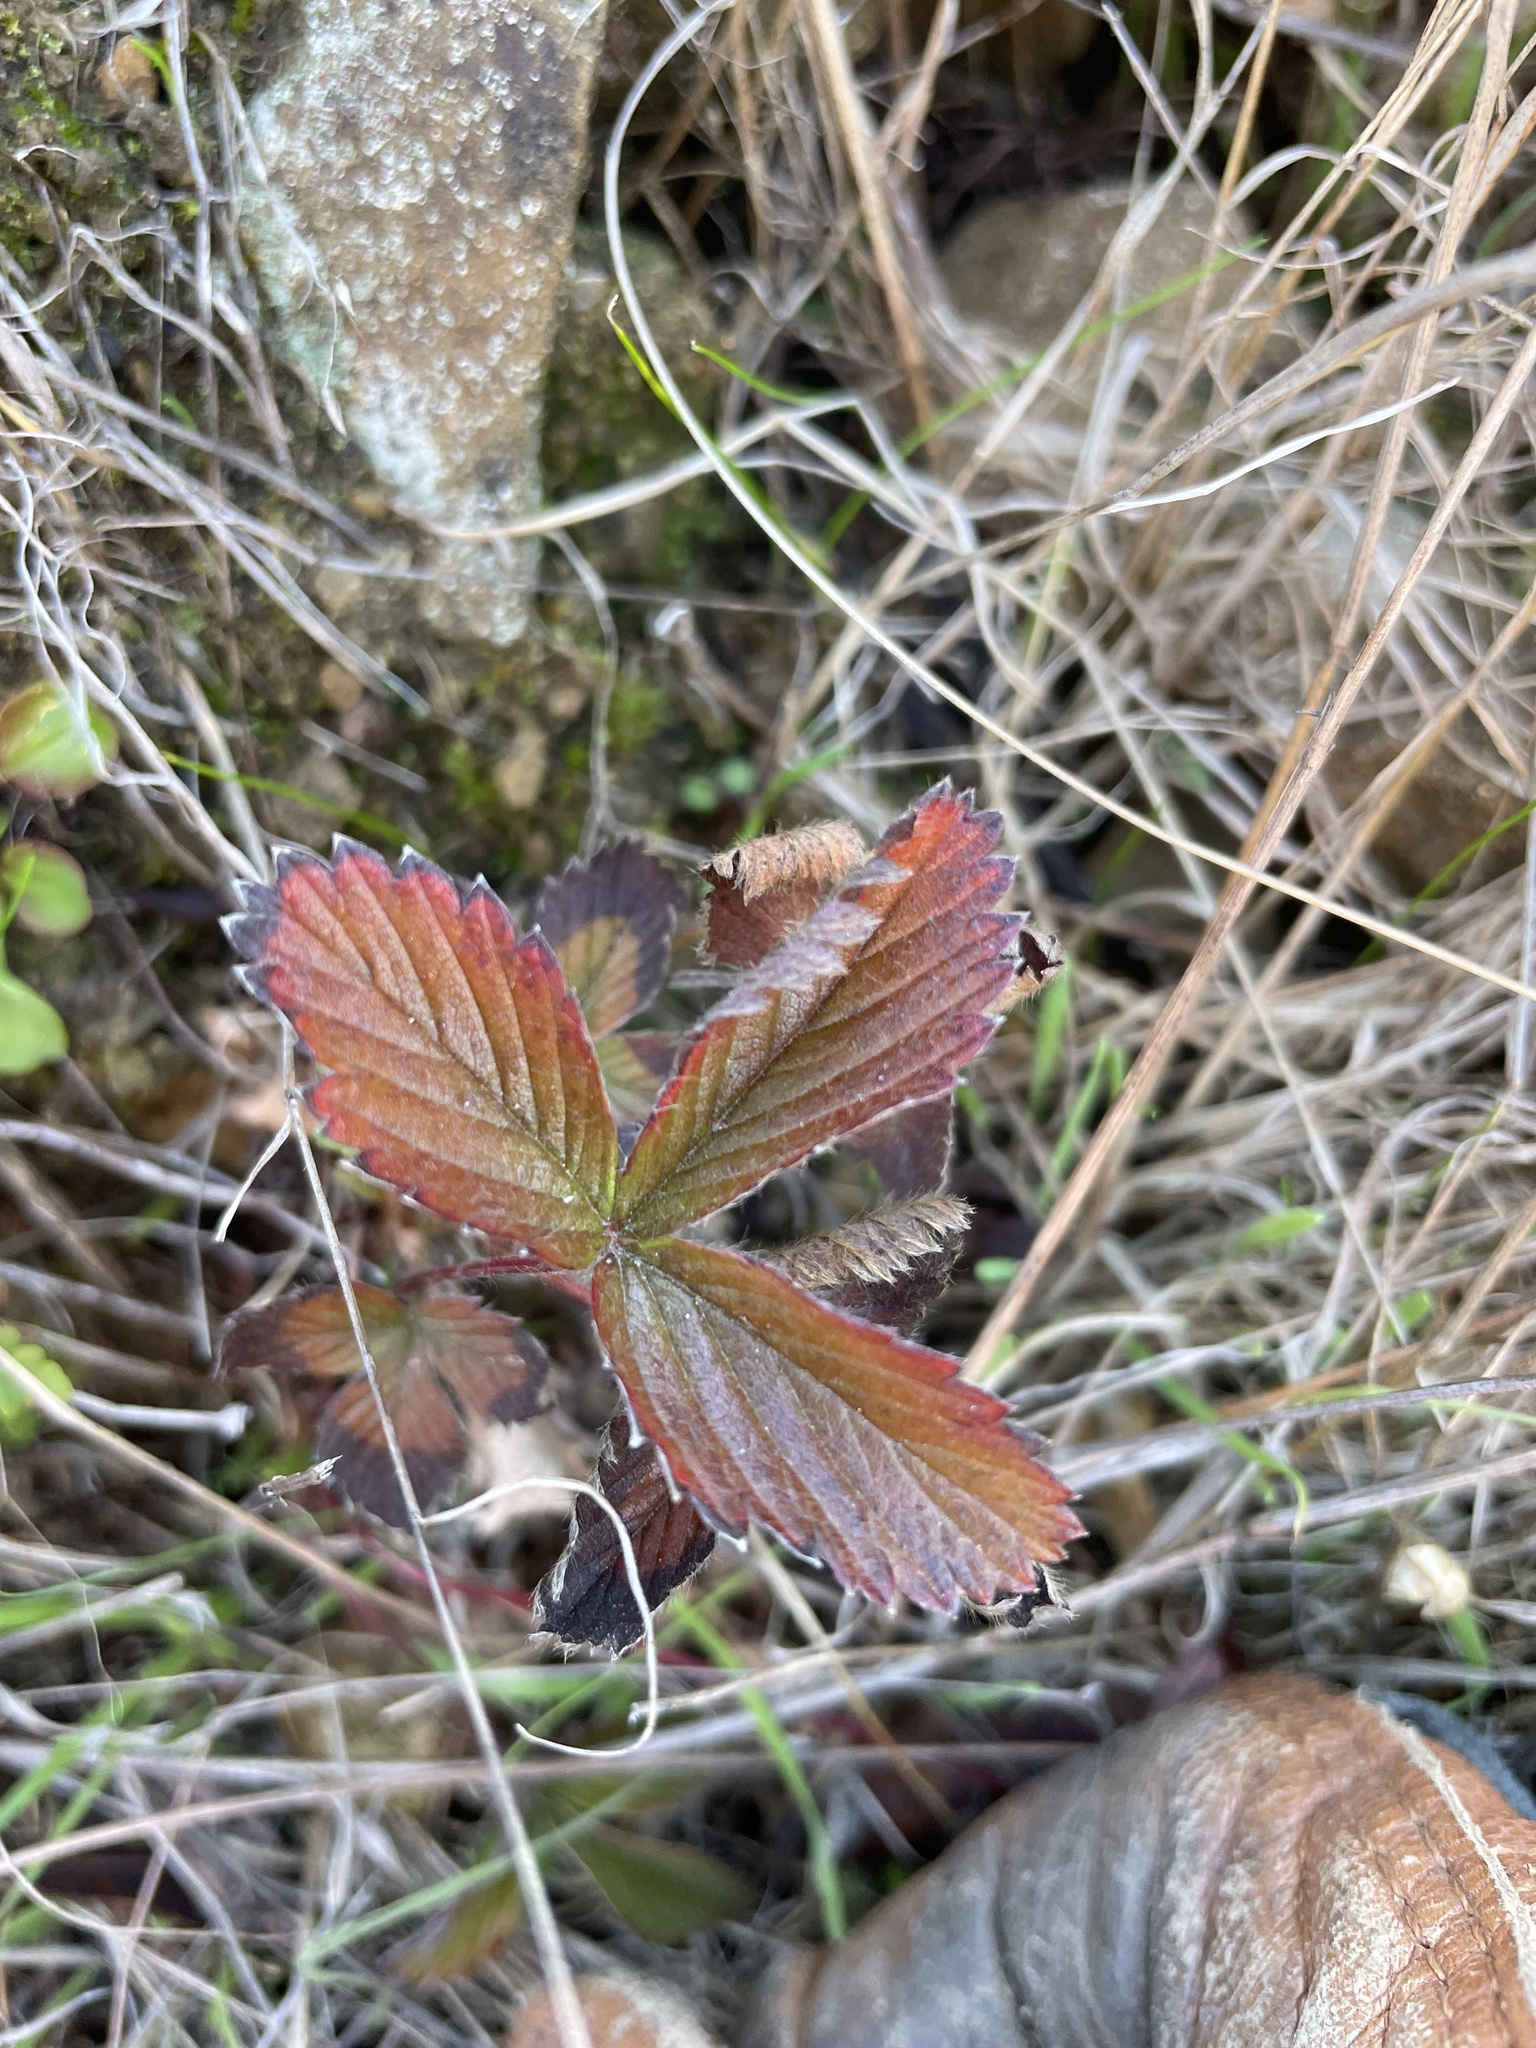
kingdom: Plantae
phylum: Tracheophyta
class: Magnoliopsida
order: Rosales
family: Rosaceae
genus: Fragaria
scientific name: Fragaria vesca
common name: Wild strawberry
